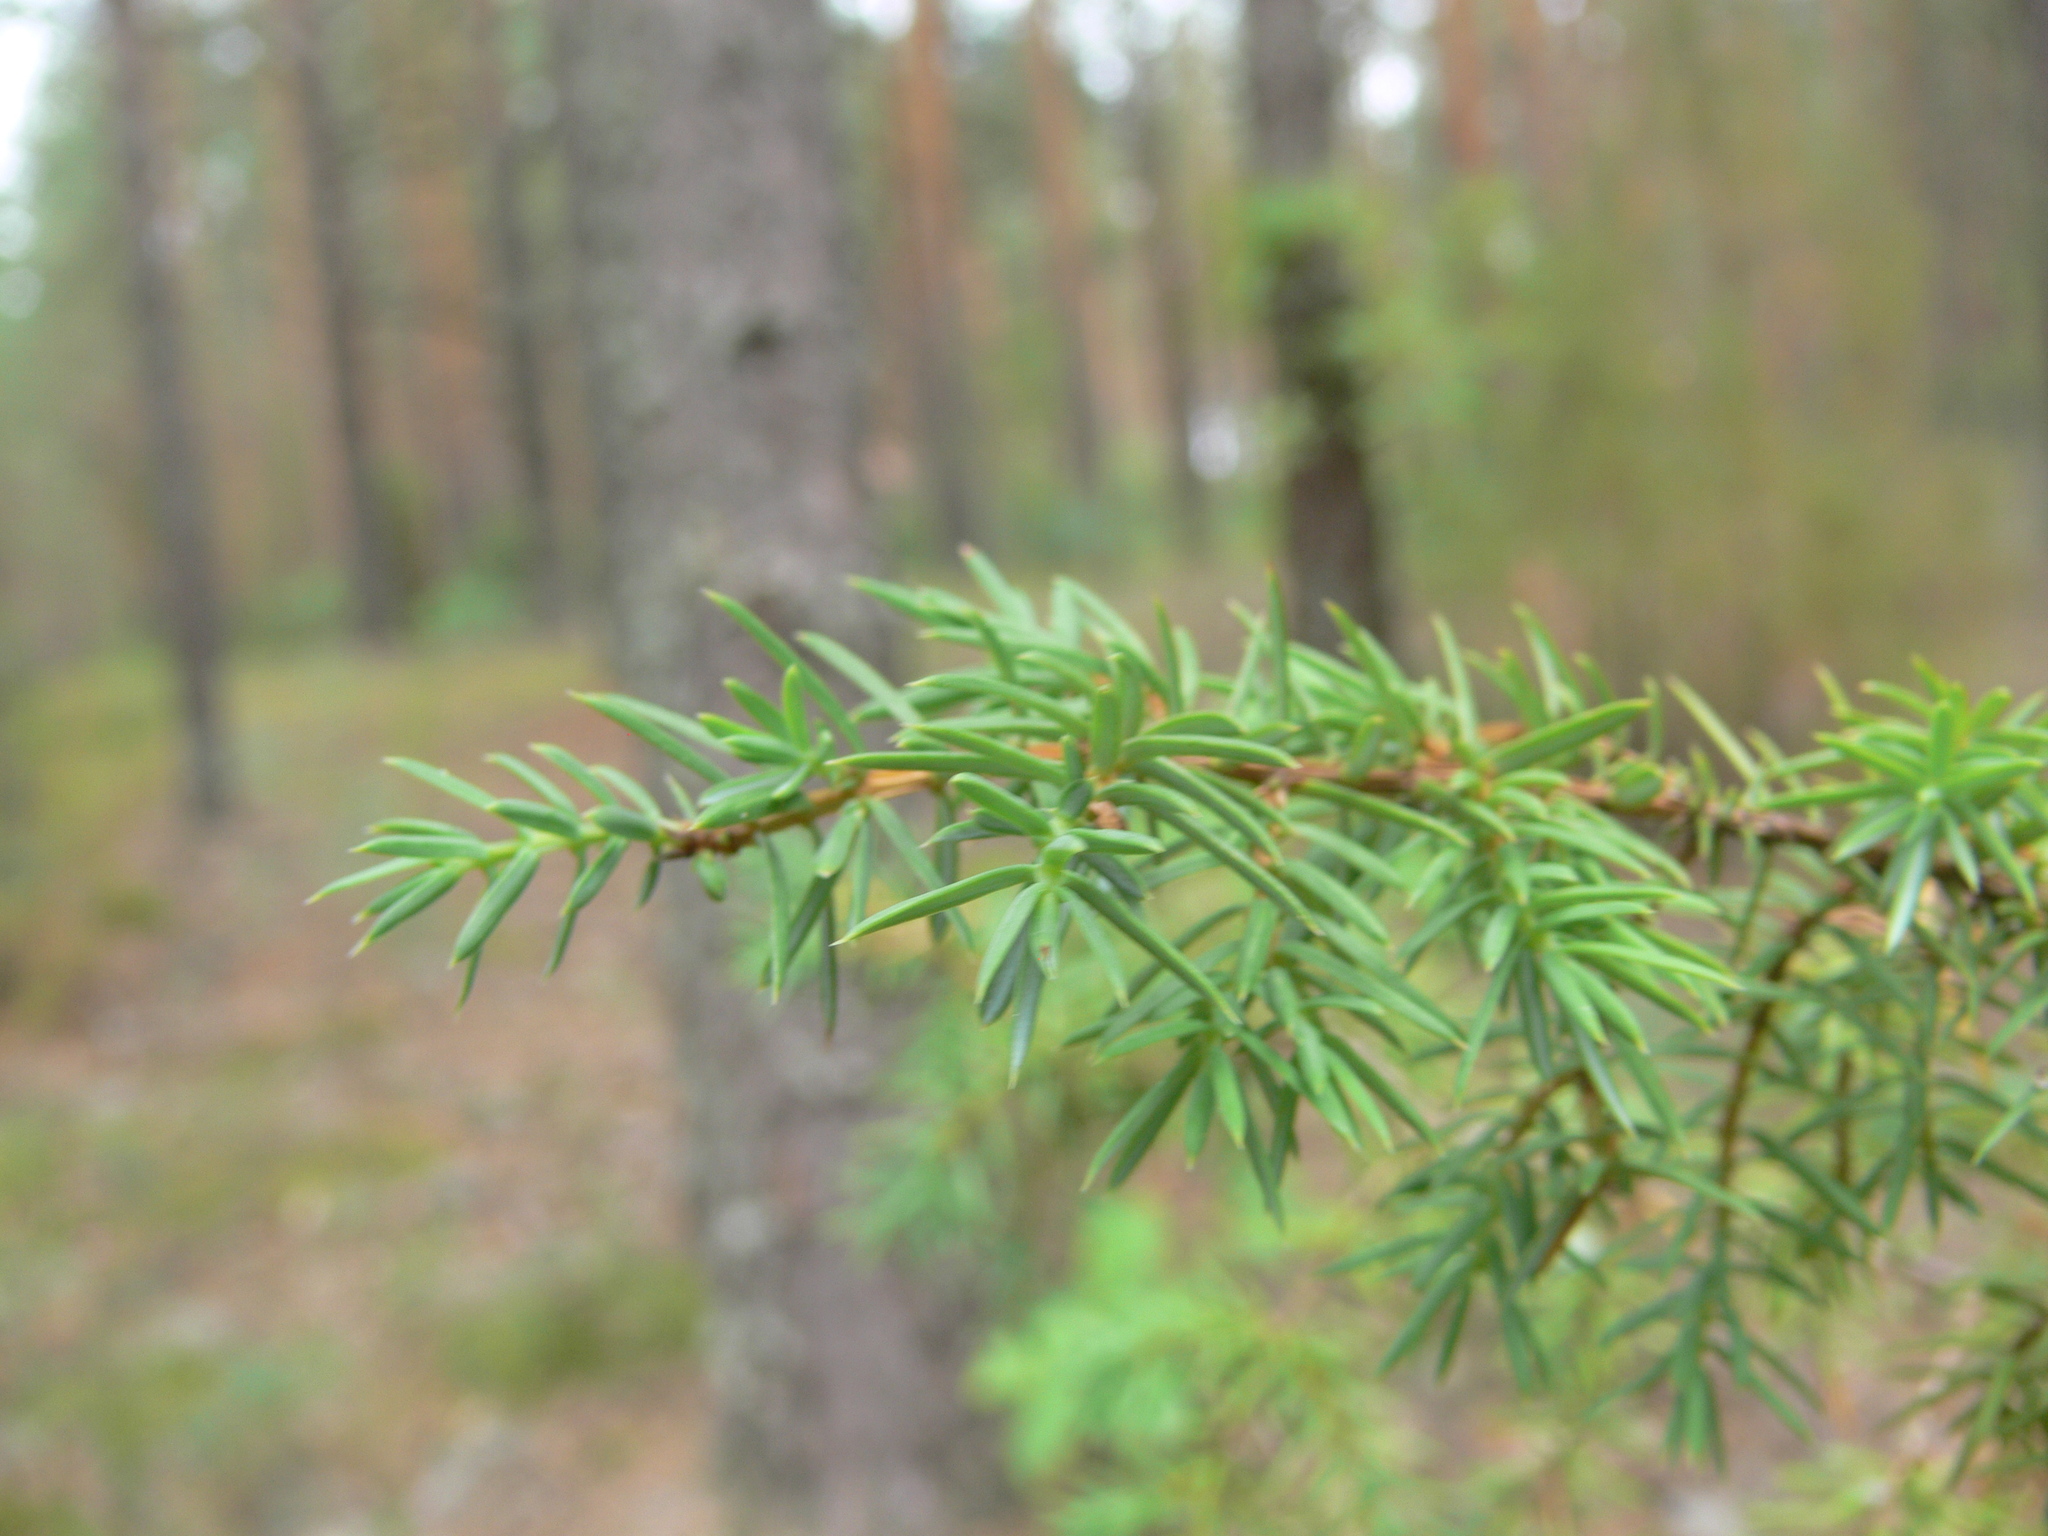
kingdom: Plantae
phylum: Tracheophyta
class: Pinopsida
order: Pinales
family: Cupressaceae
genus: Juniperus
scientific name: Juniperus communis
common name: Common juniper
